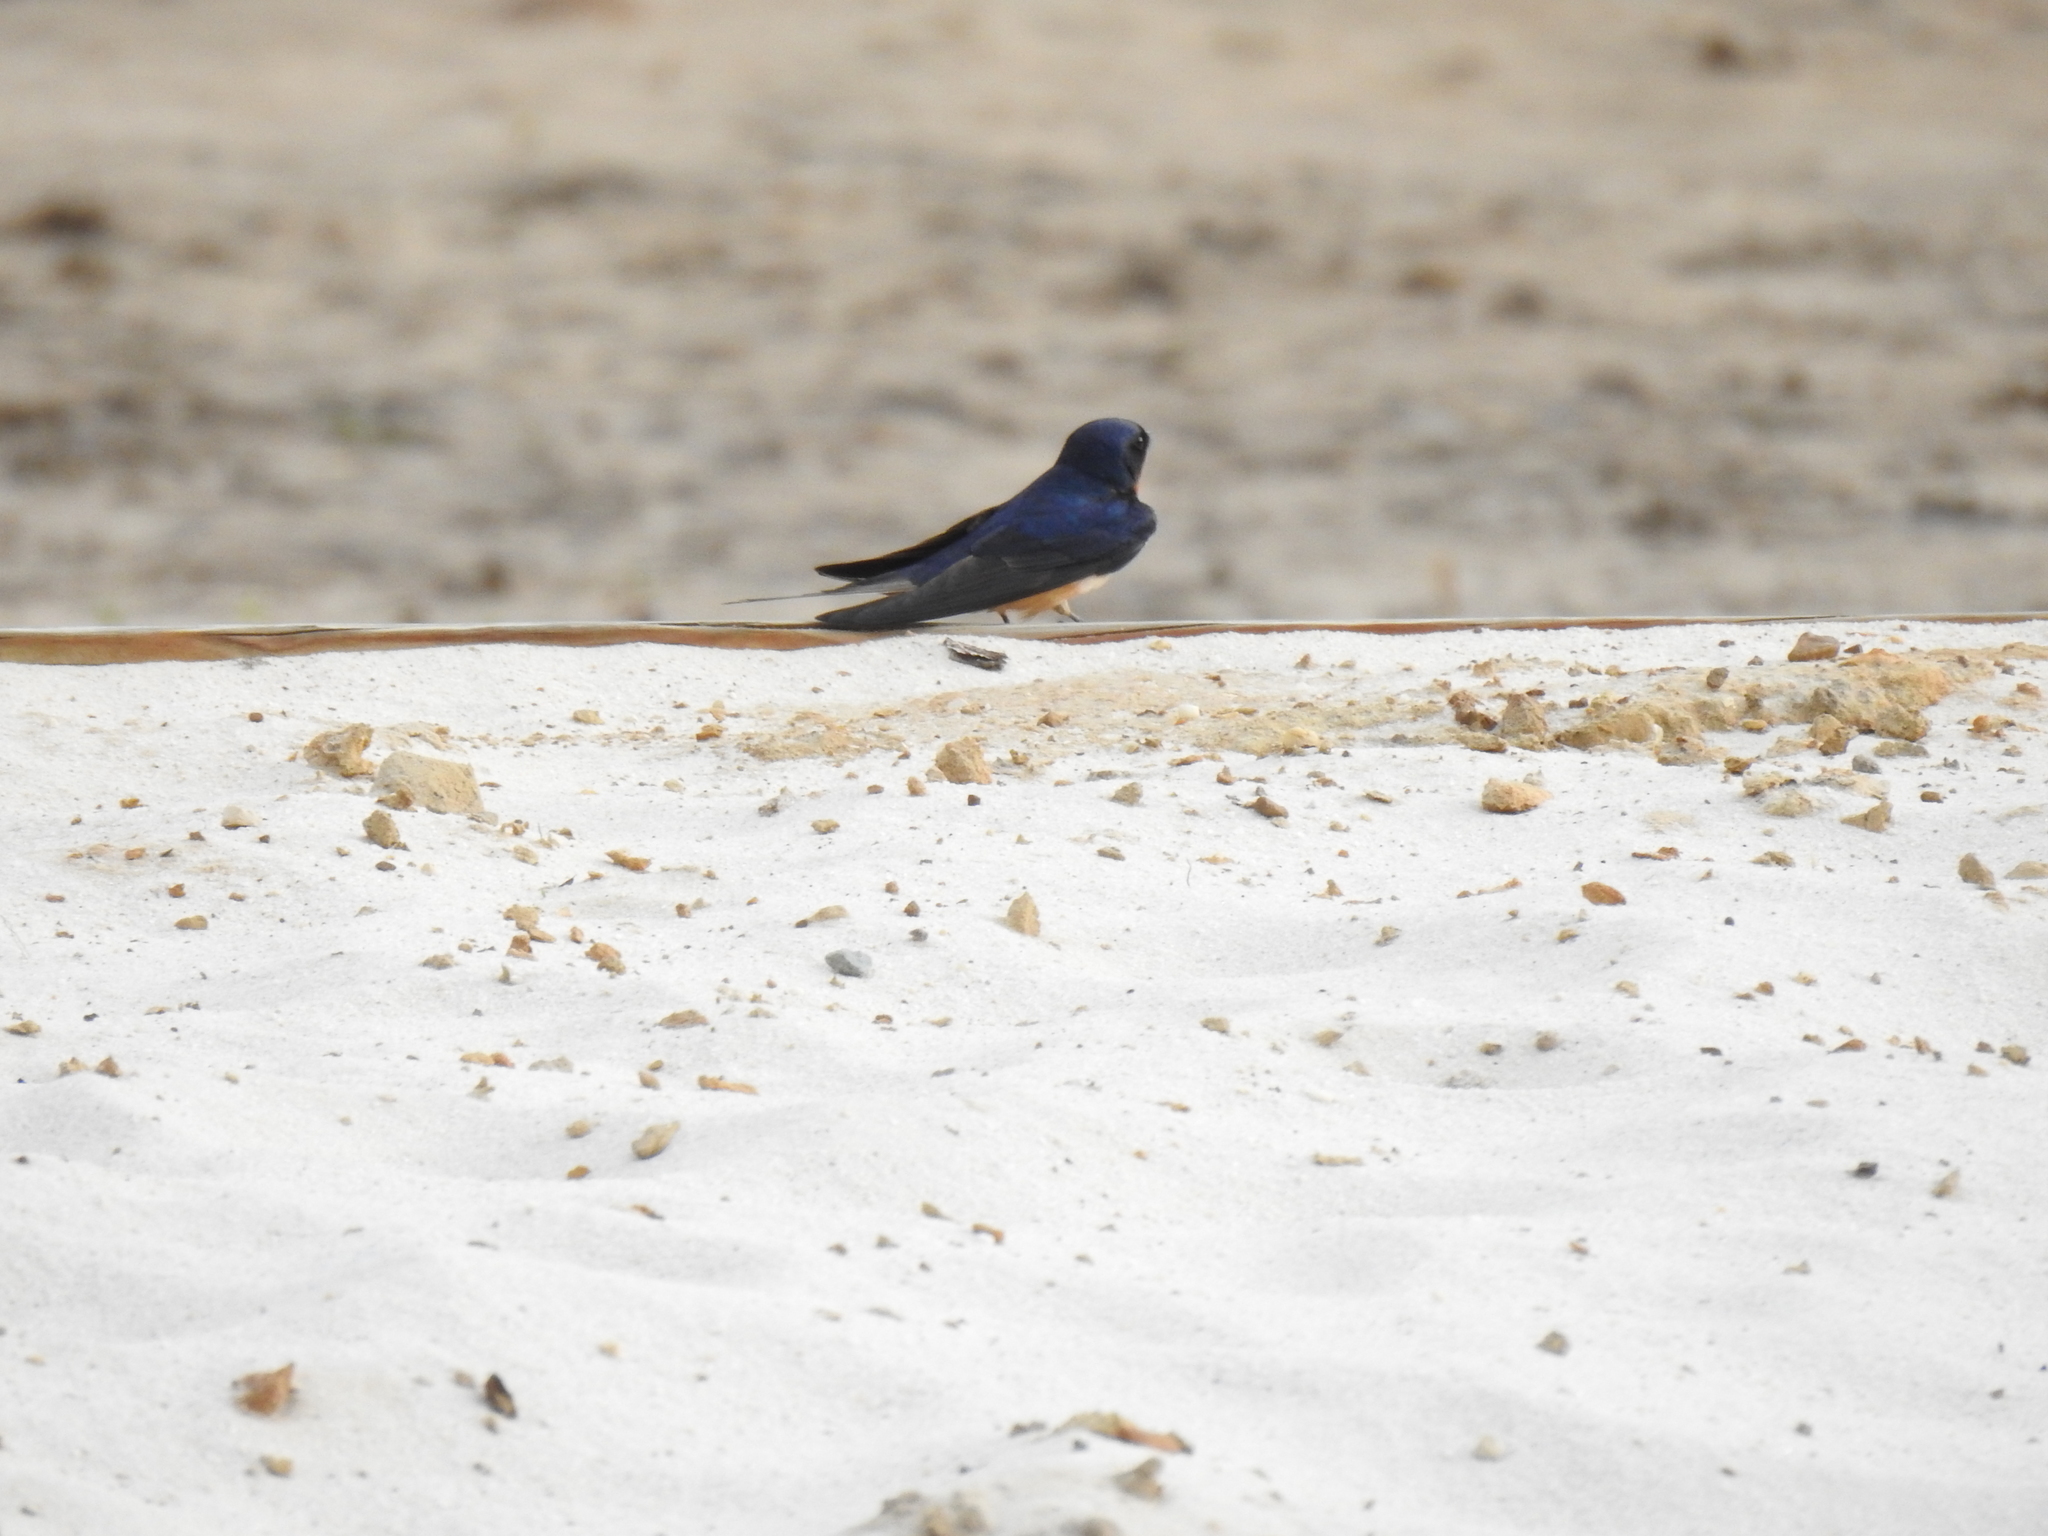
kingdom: Animalia
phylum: Chordata
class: Aves
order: Passeriformes
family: Hirundinidae
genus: Hirundo
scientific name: Hirundo rustica
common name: Barn swallow
